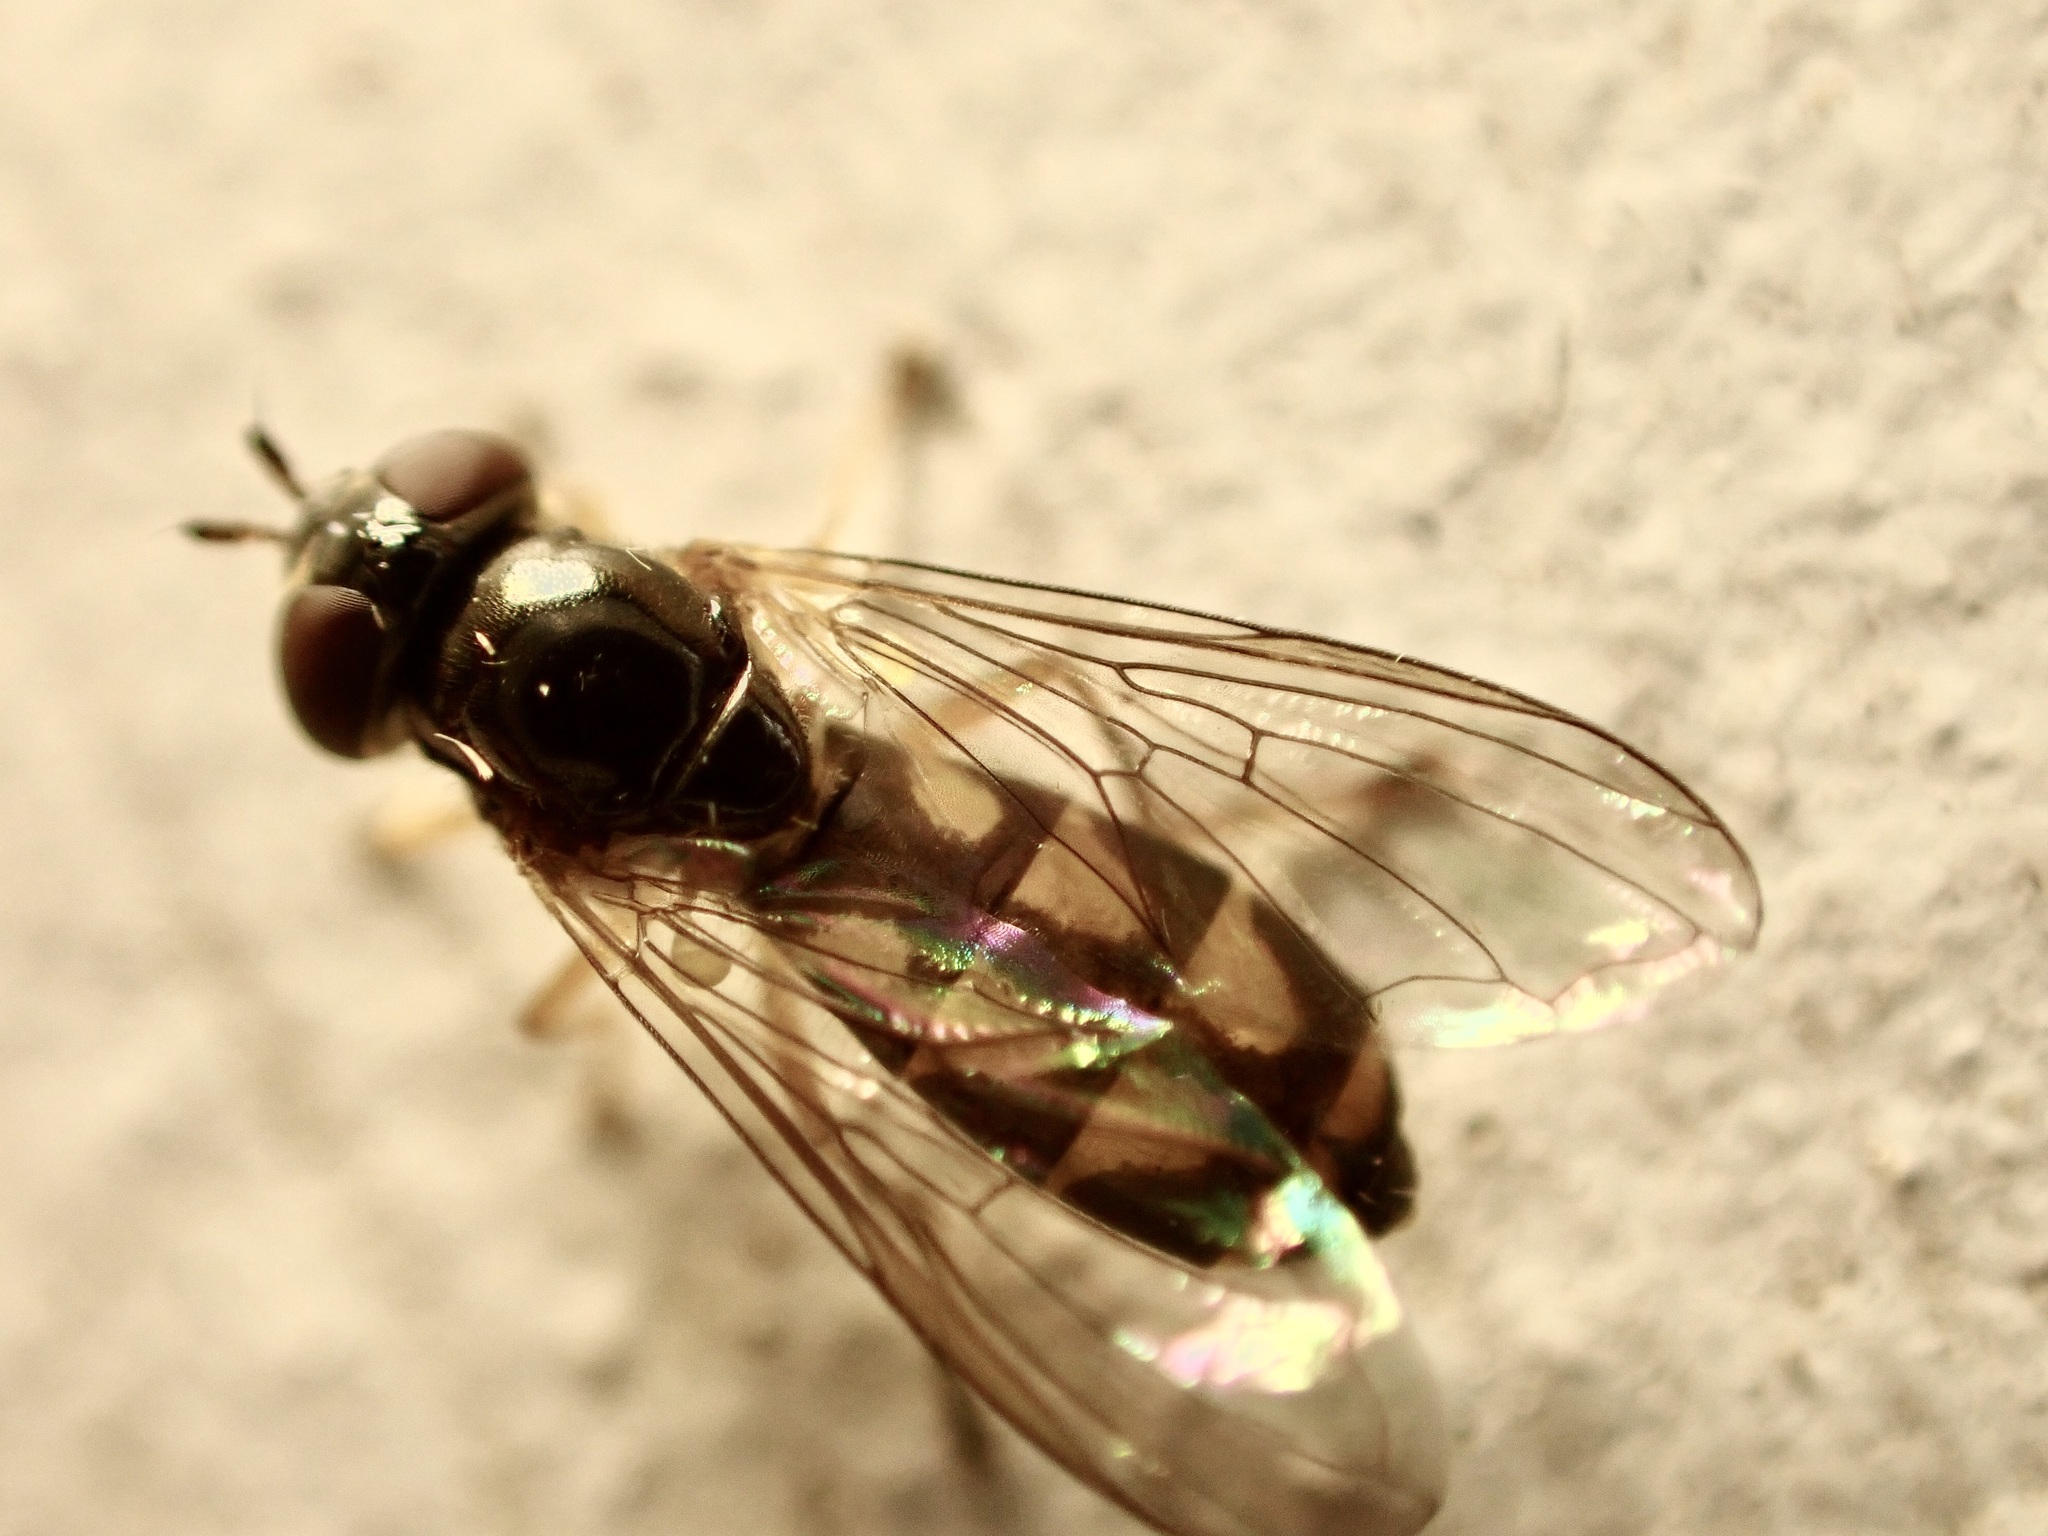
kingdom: Animalia
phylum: Arthropoda
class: Insecta
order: Diptera
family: Syrphidae
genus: Melanostoma
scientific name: Melanostoma fasciatum
